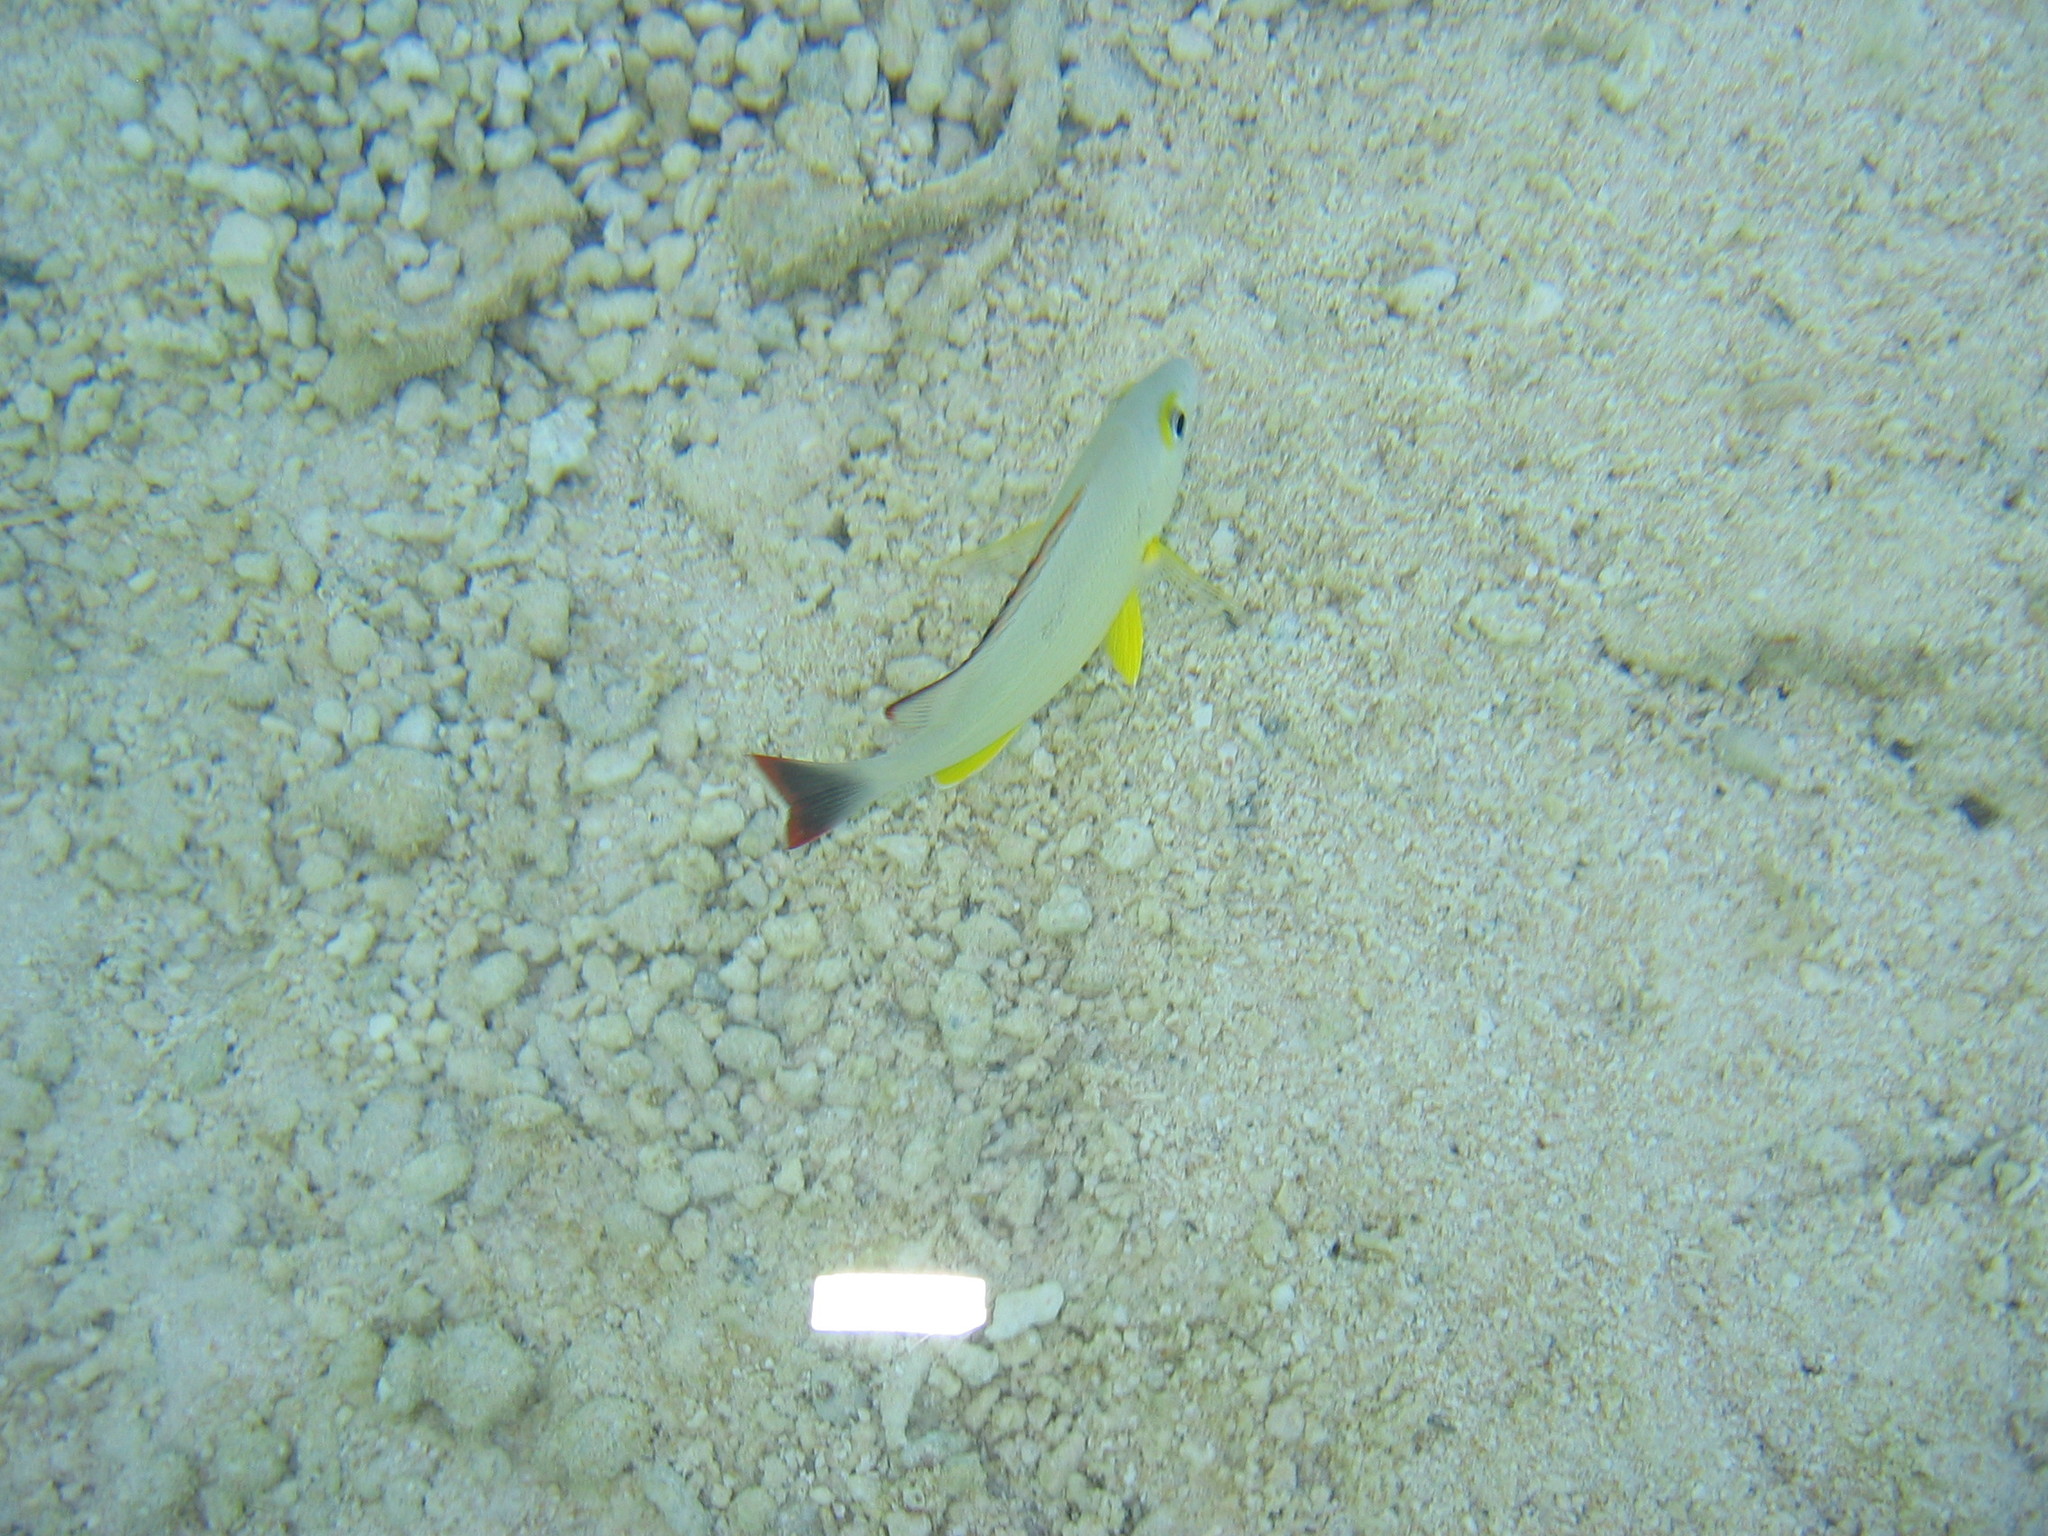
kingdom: Animalia
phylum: Chordata
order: Perciformes
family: Lutjanidae
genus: Lutjanus
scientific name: Lutjanus fulvus
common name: Blacktail snapper
